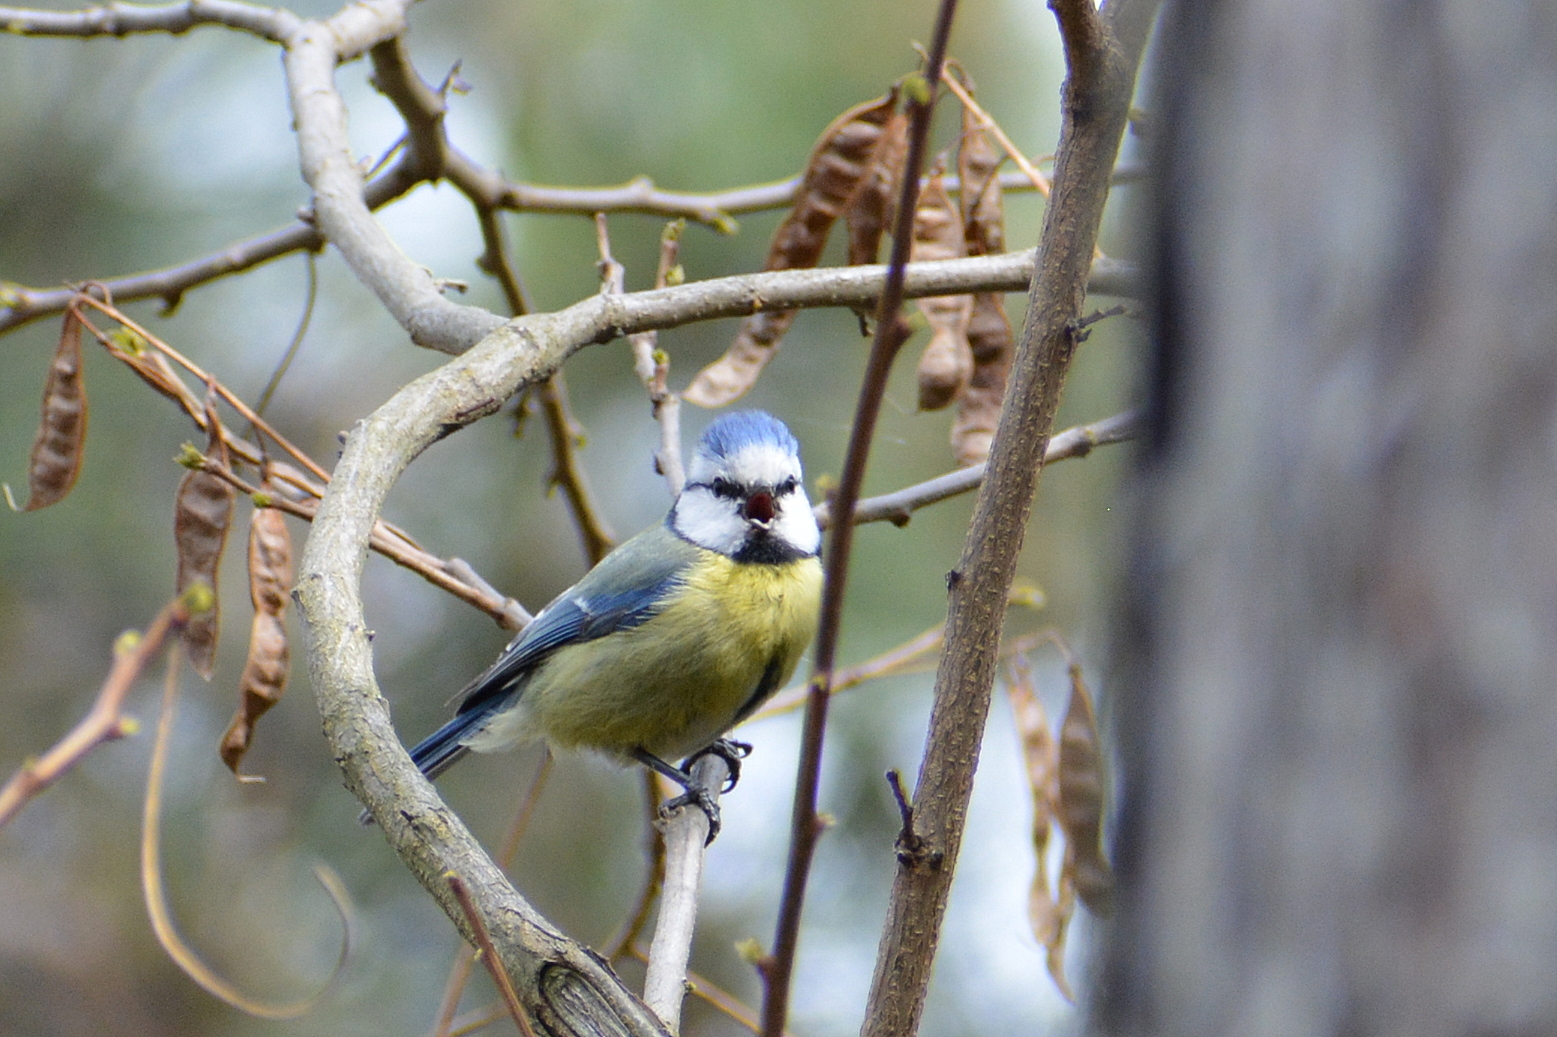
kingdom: Animalia
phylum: Chordata
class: Aves
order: Passeriformes
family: Paridae
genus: Cyanistes
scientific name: Cyanistes caeruleus
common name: Eurasian blue tit
